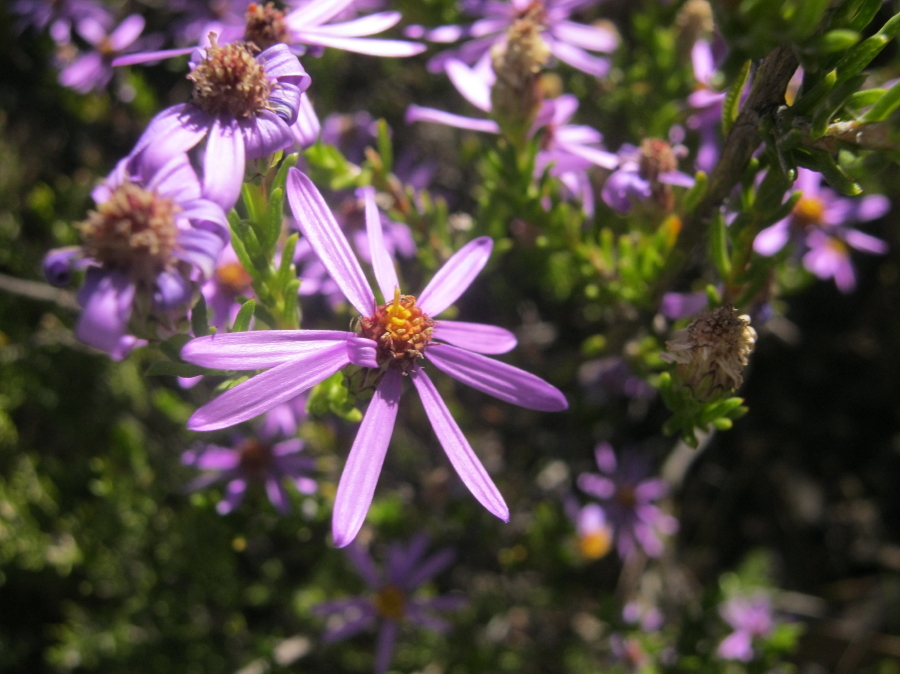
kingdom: Plantae
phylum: Tracheophyta
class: Magnoliopsida
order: Asterales
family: Asteraceae
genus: Felicia
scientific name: Felicia filifolia
